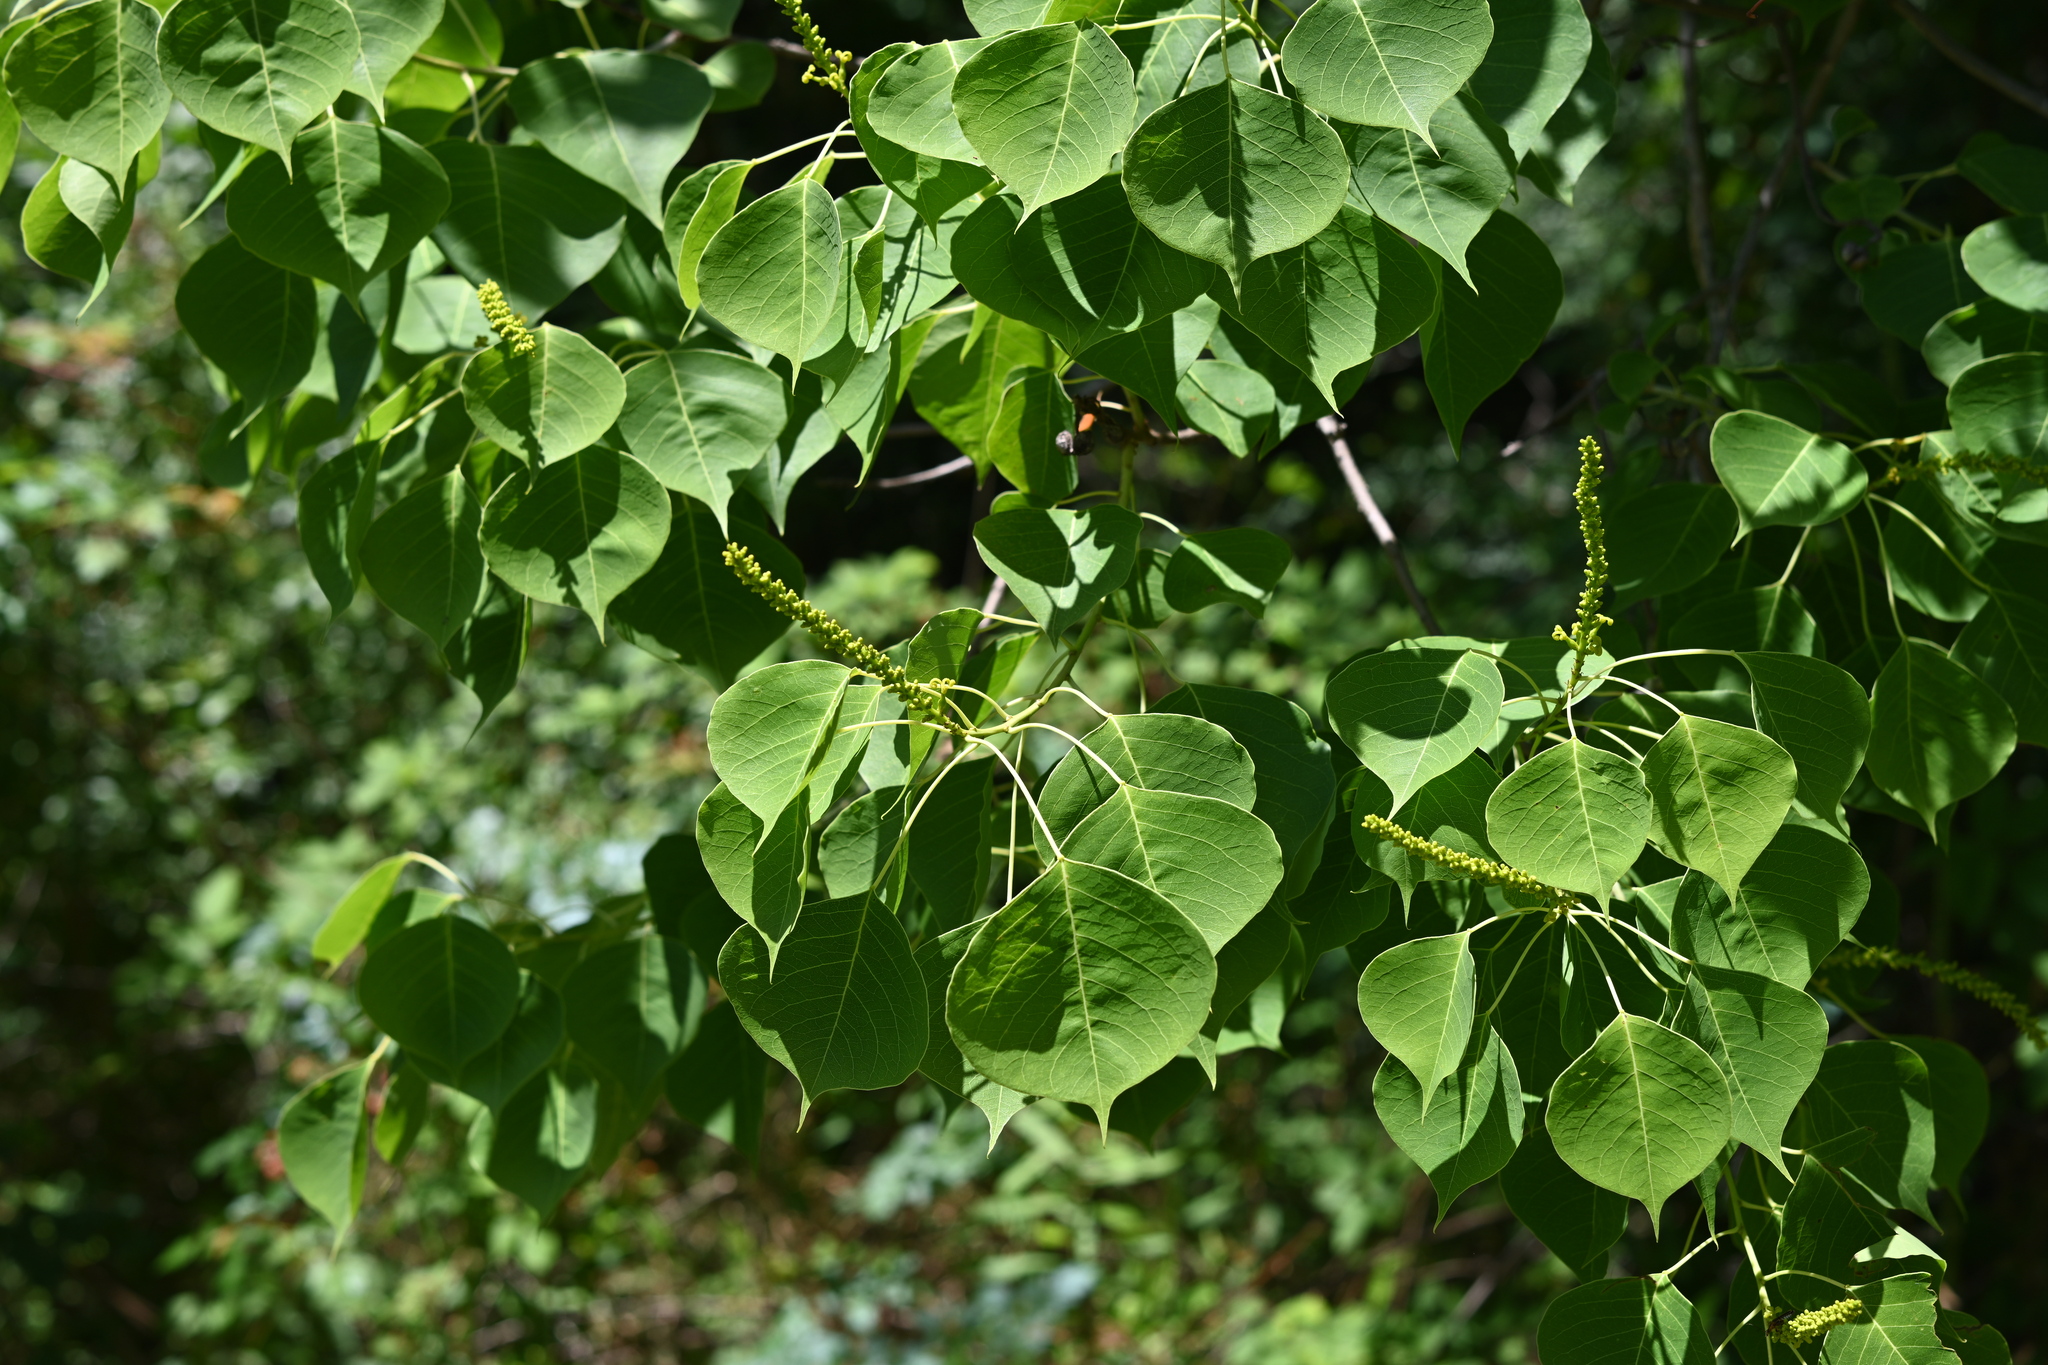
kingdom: Plantae
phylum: Tracheophyta
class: Magnoliopsida
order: Malpighiales
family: Euphorbiaceae
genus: Triadica
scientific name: Triadica sebifera
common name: Chinese tallow
